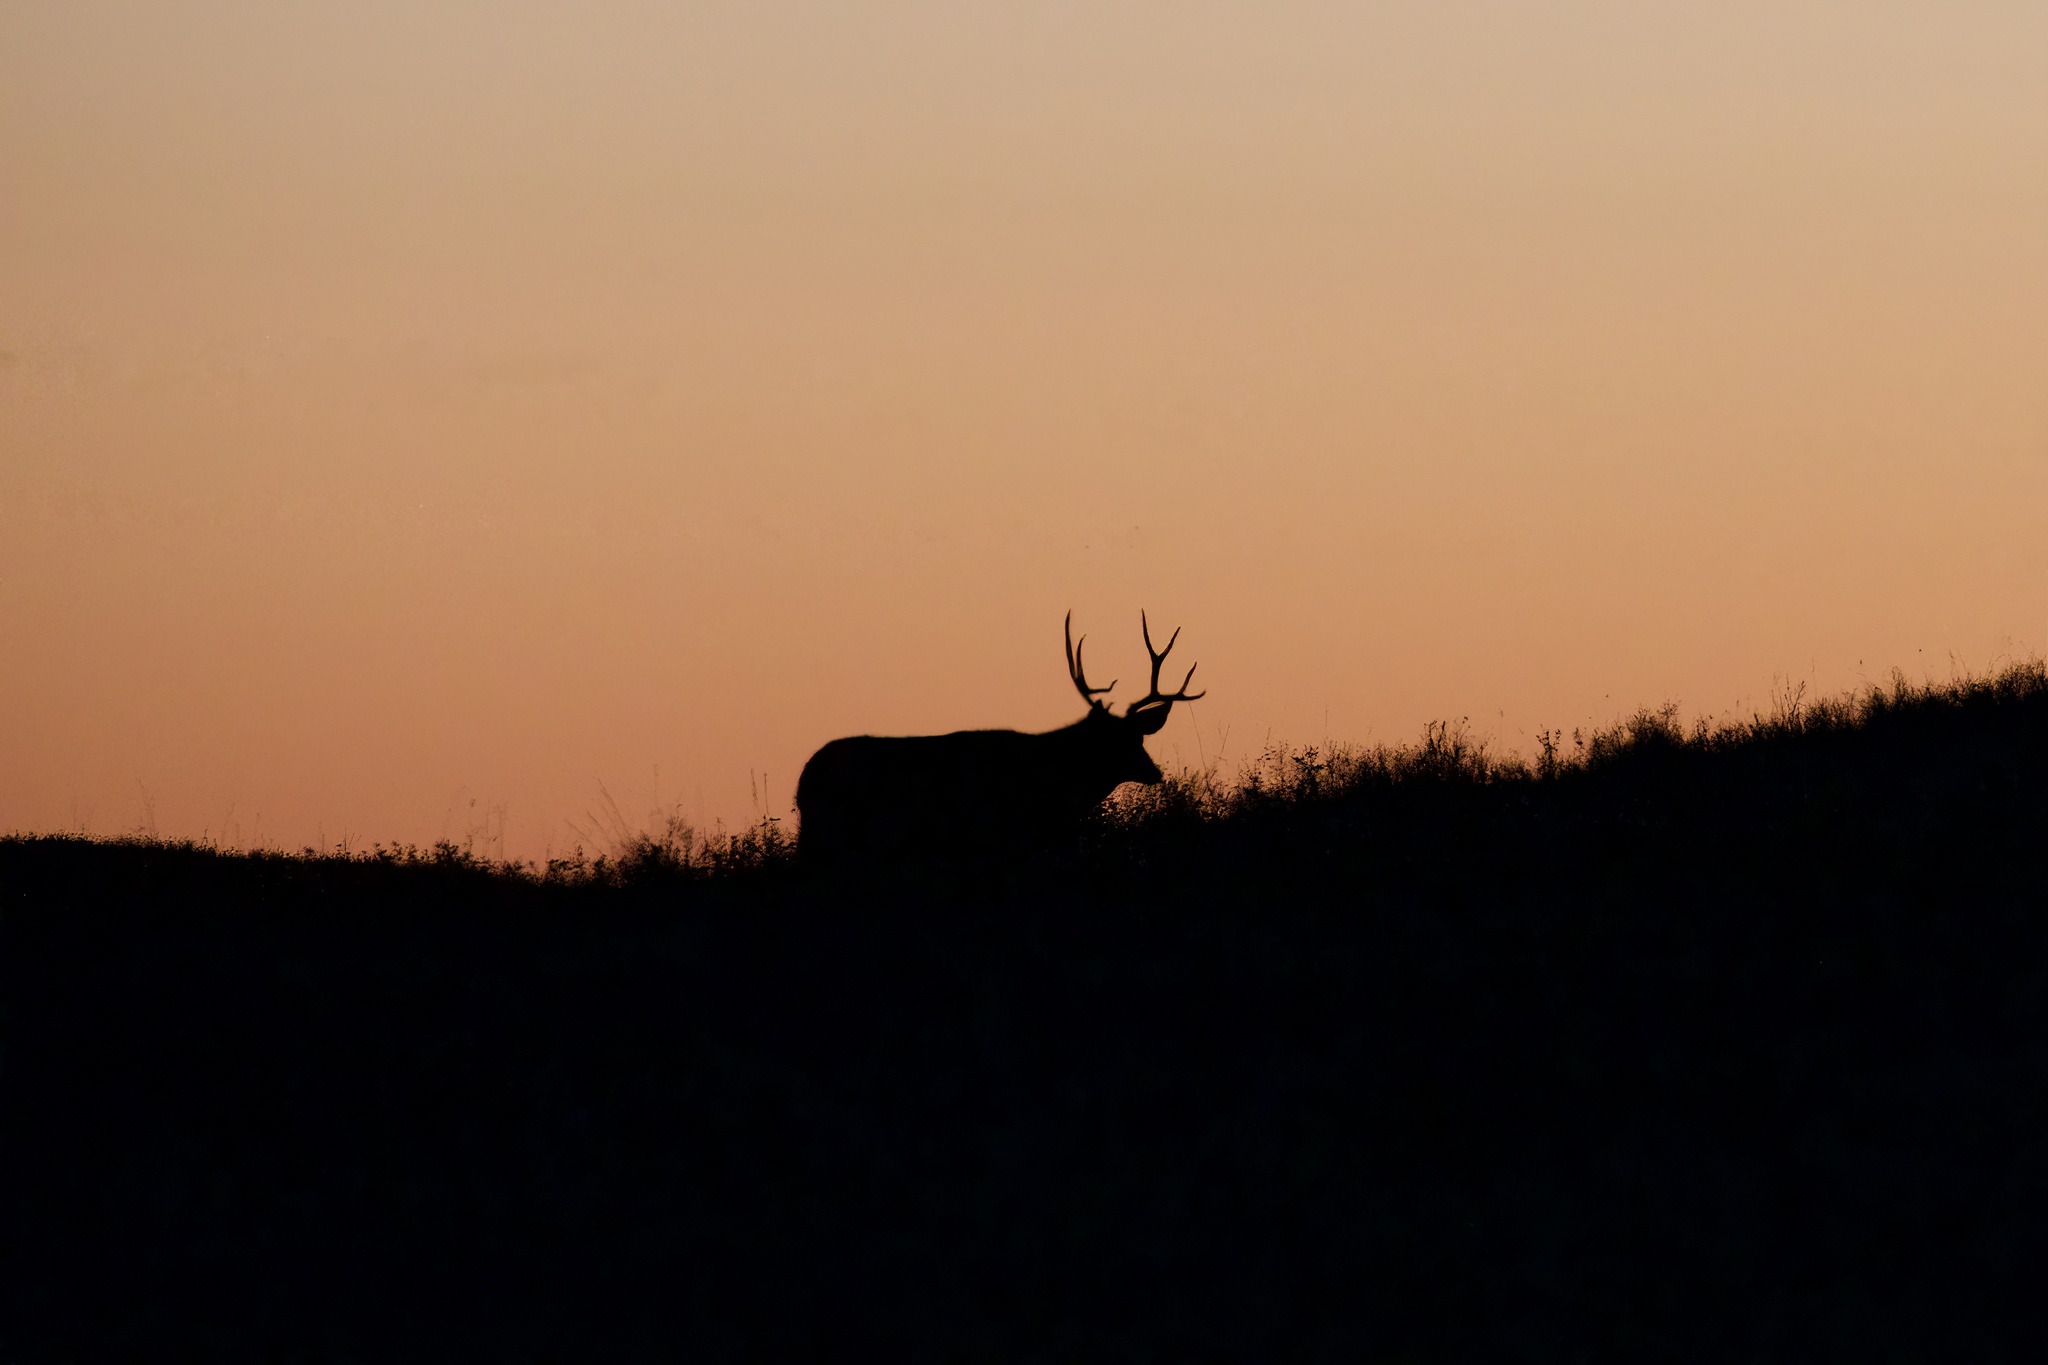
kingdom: Animalia
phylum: Chordata
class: Mammalia
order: Artiodactyla
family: Cervidae
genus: Odocoileus
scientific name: Odocoileus hemionus
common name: Mule deer
